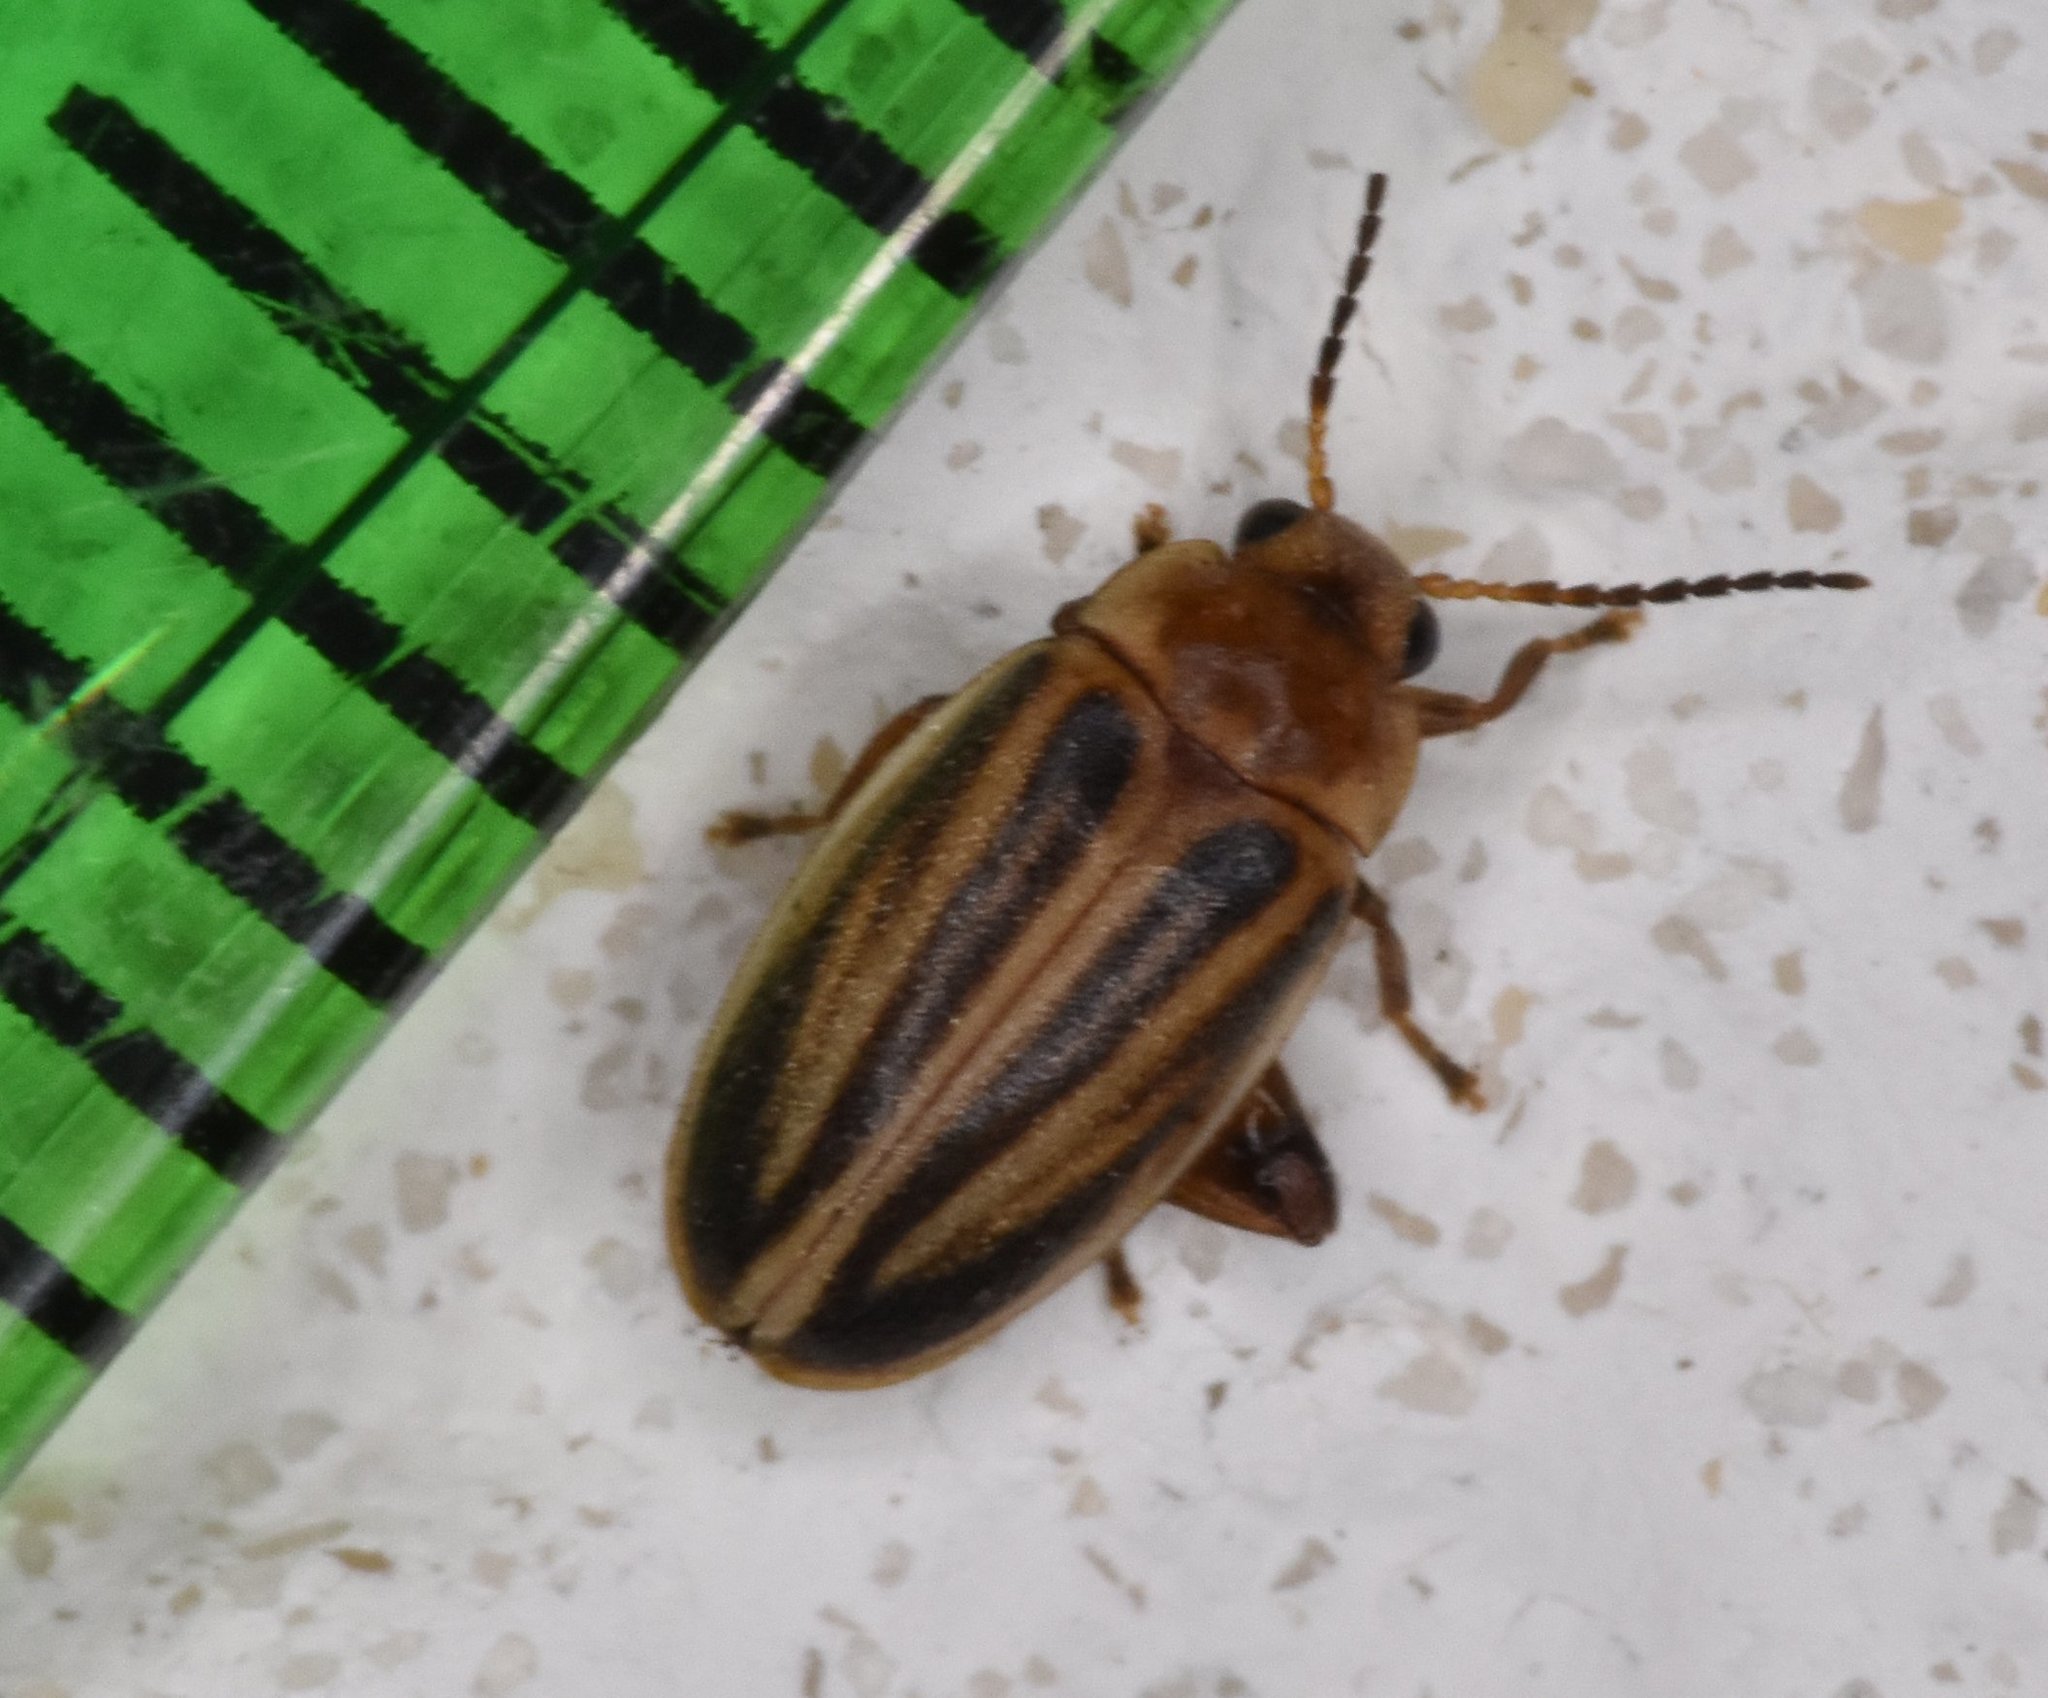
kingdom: Animalia
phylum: Arthropoda
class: Insecta
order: Coleoptera
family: Scirtidae
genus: Scirtes
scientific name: Scirtes oblongus
